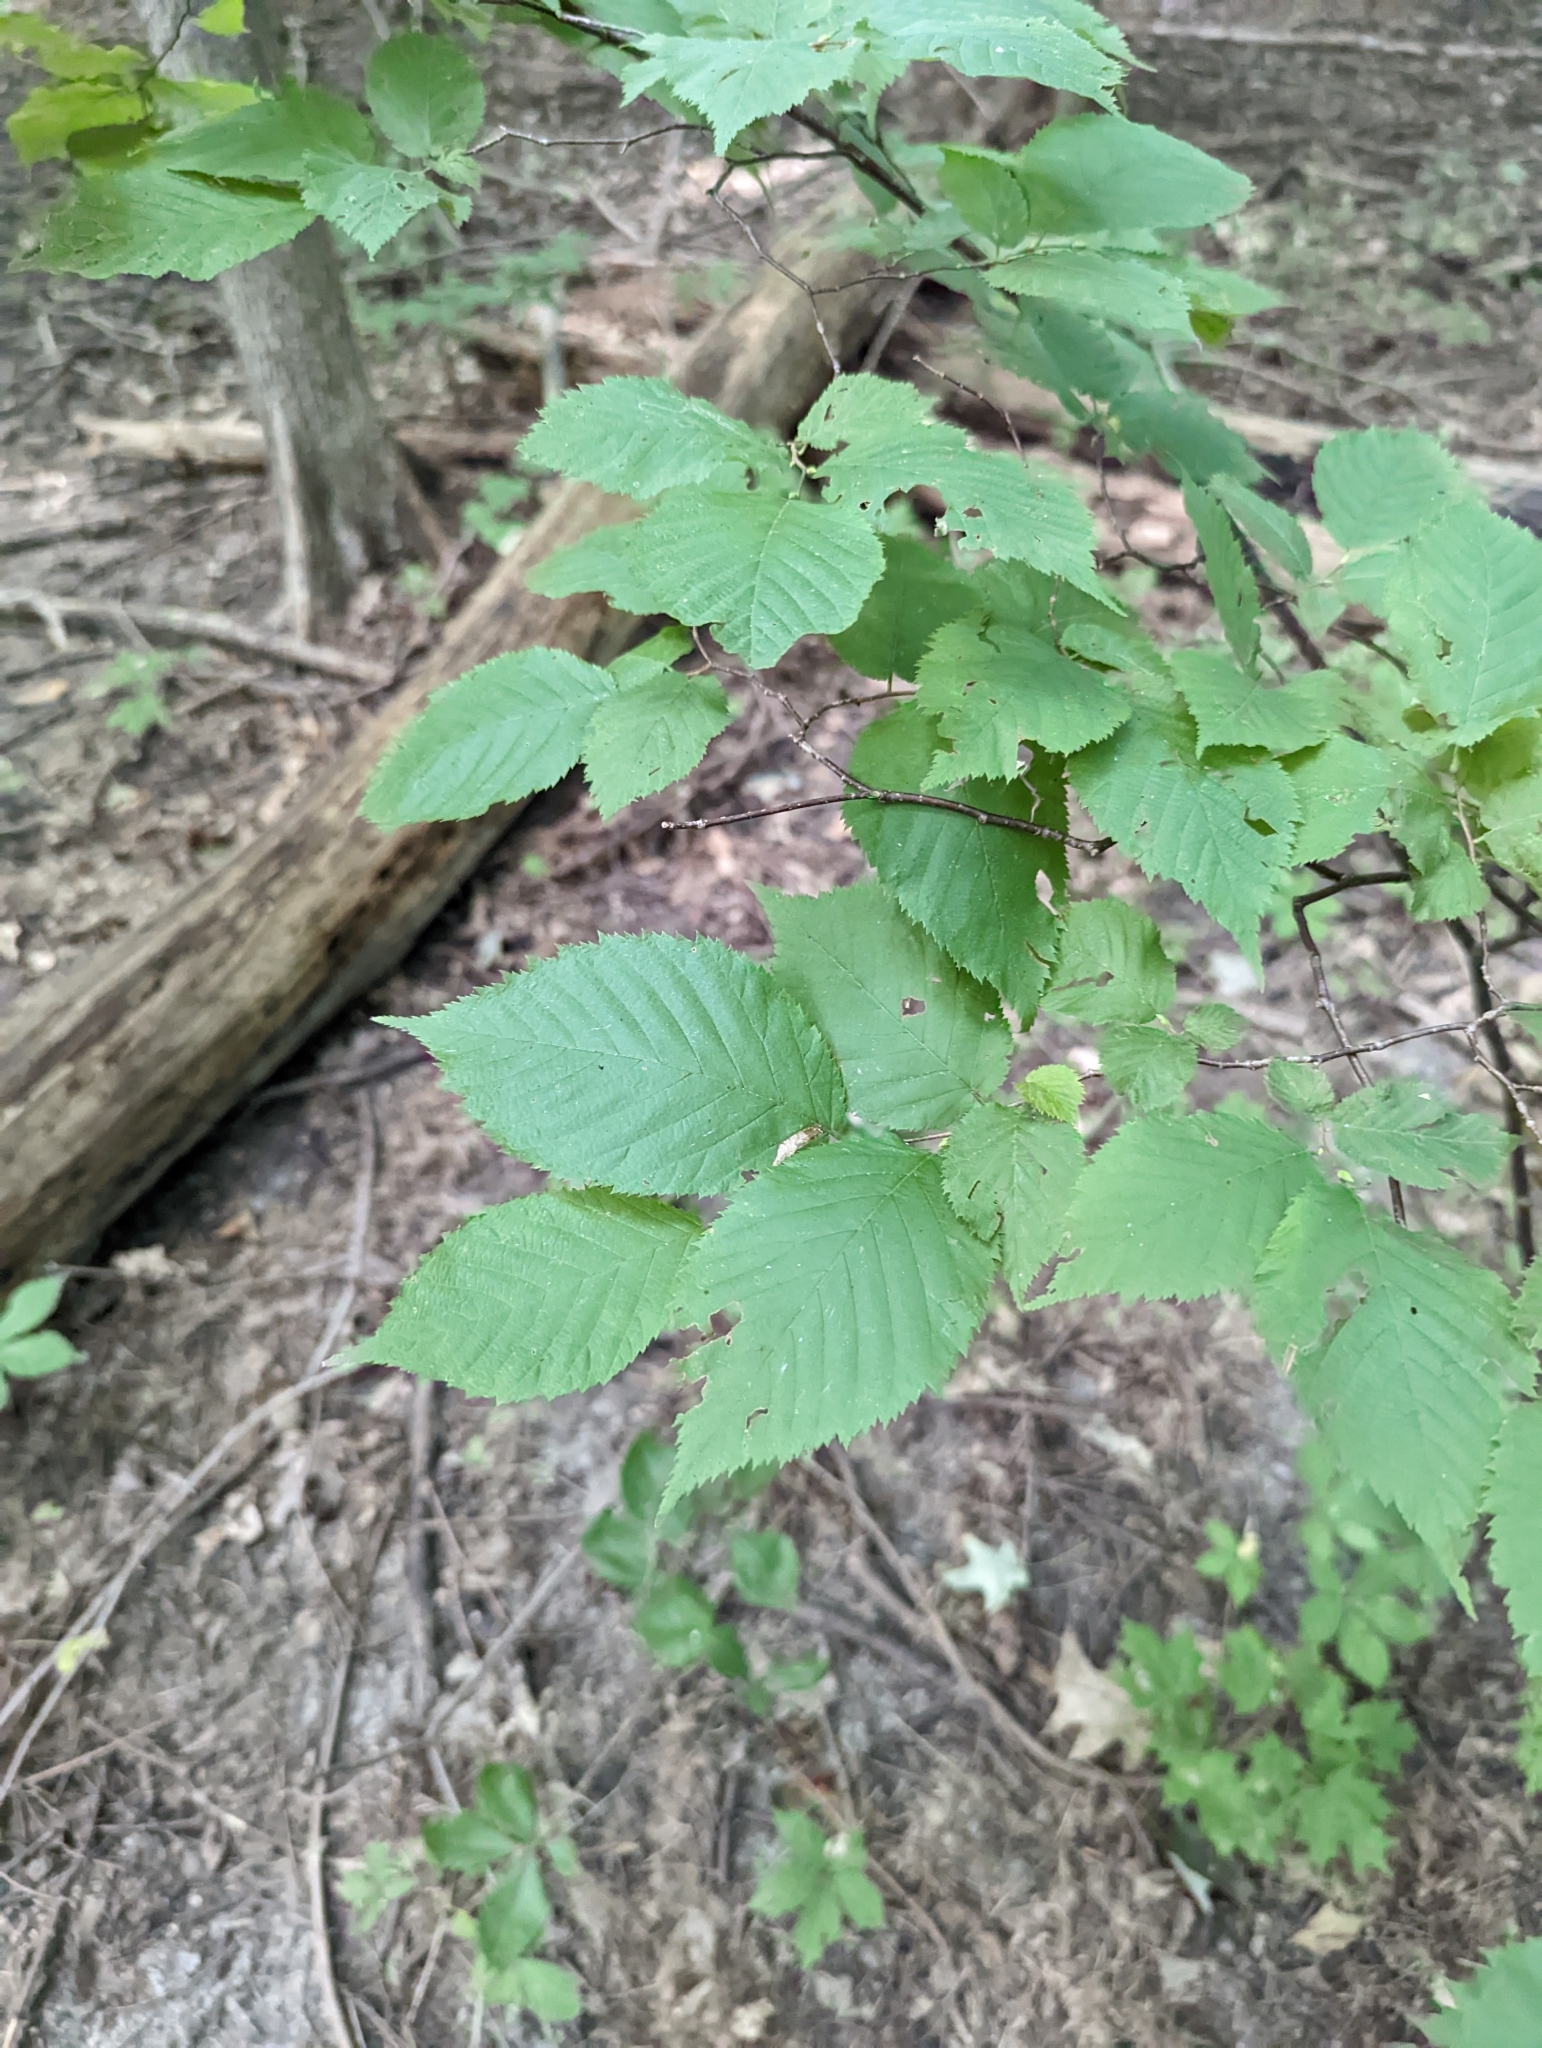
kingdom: Plantae
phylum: Tracheophyta
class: Magnoliopsida
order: Fagales
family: Betulaceae
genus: Carpinus
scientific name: Carpinus caroliniana
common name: American hornbeam
